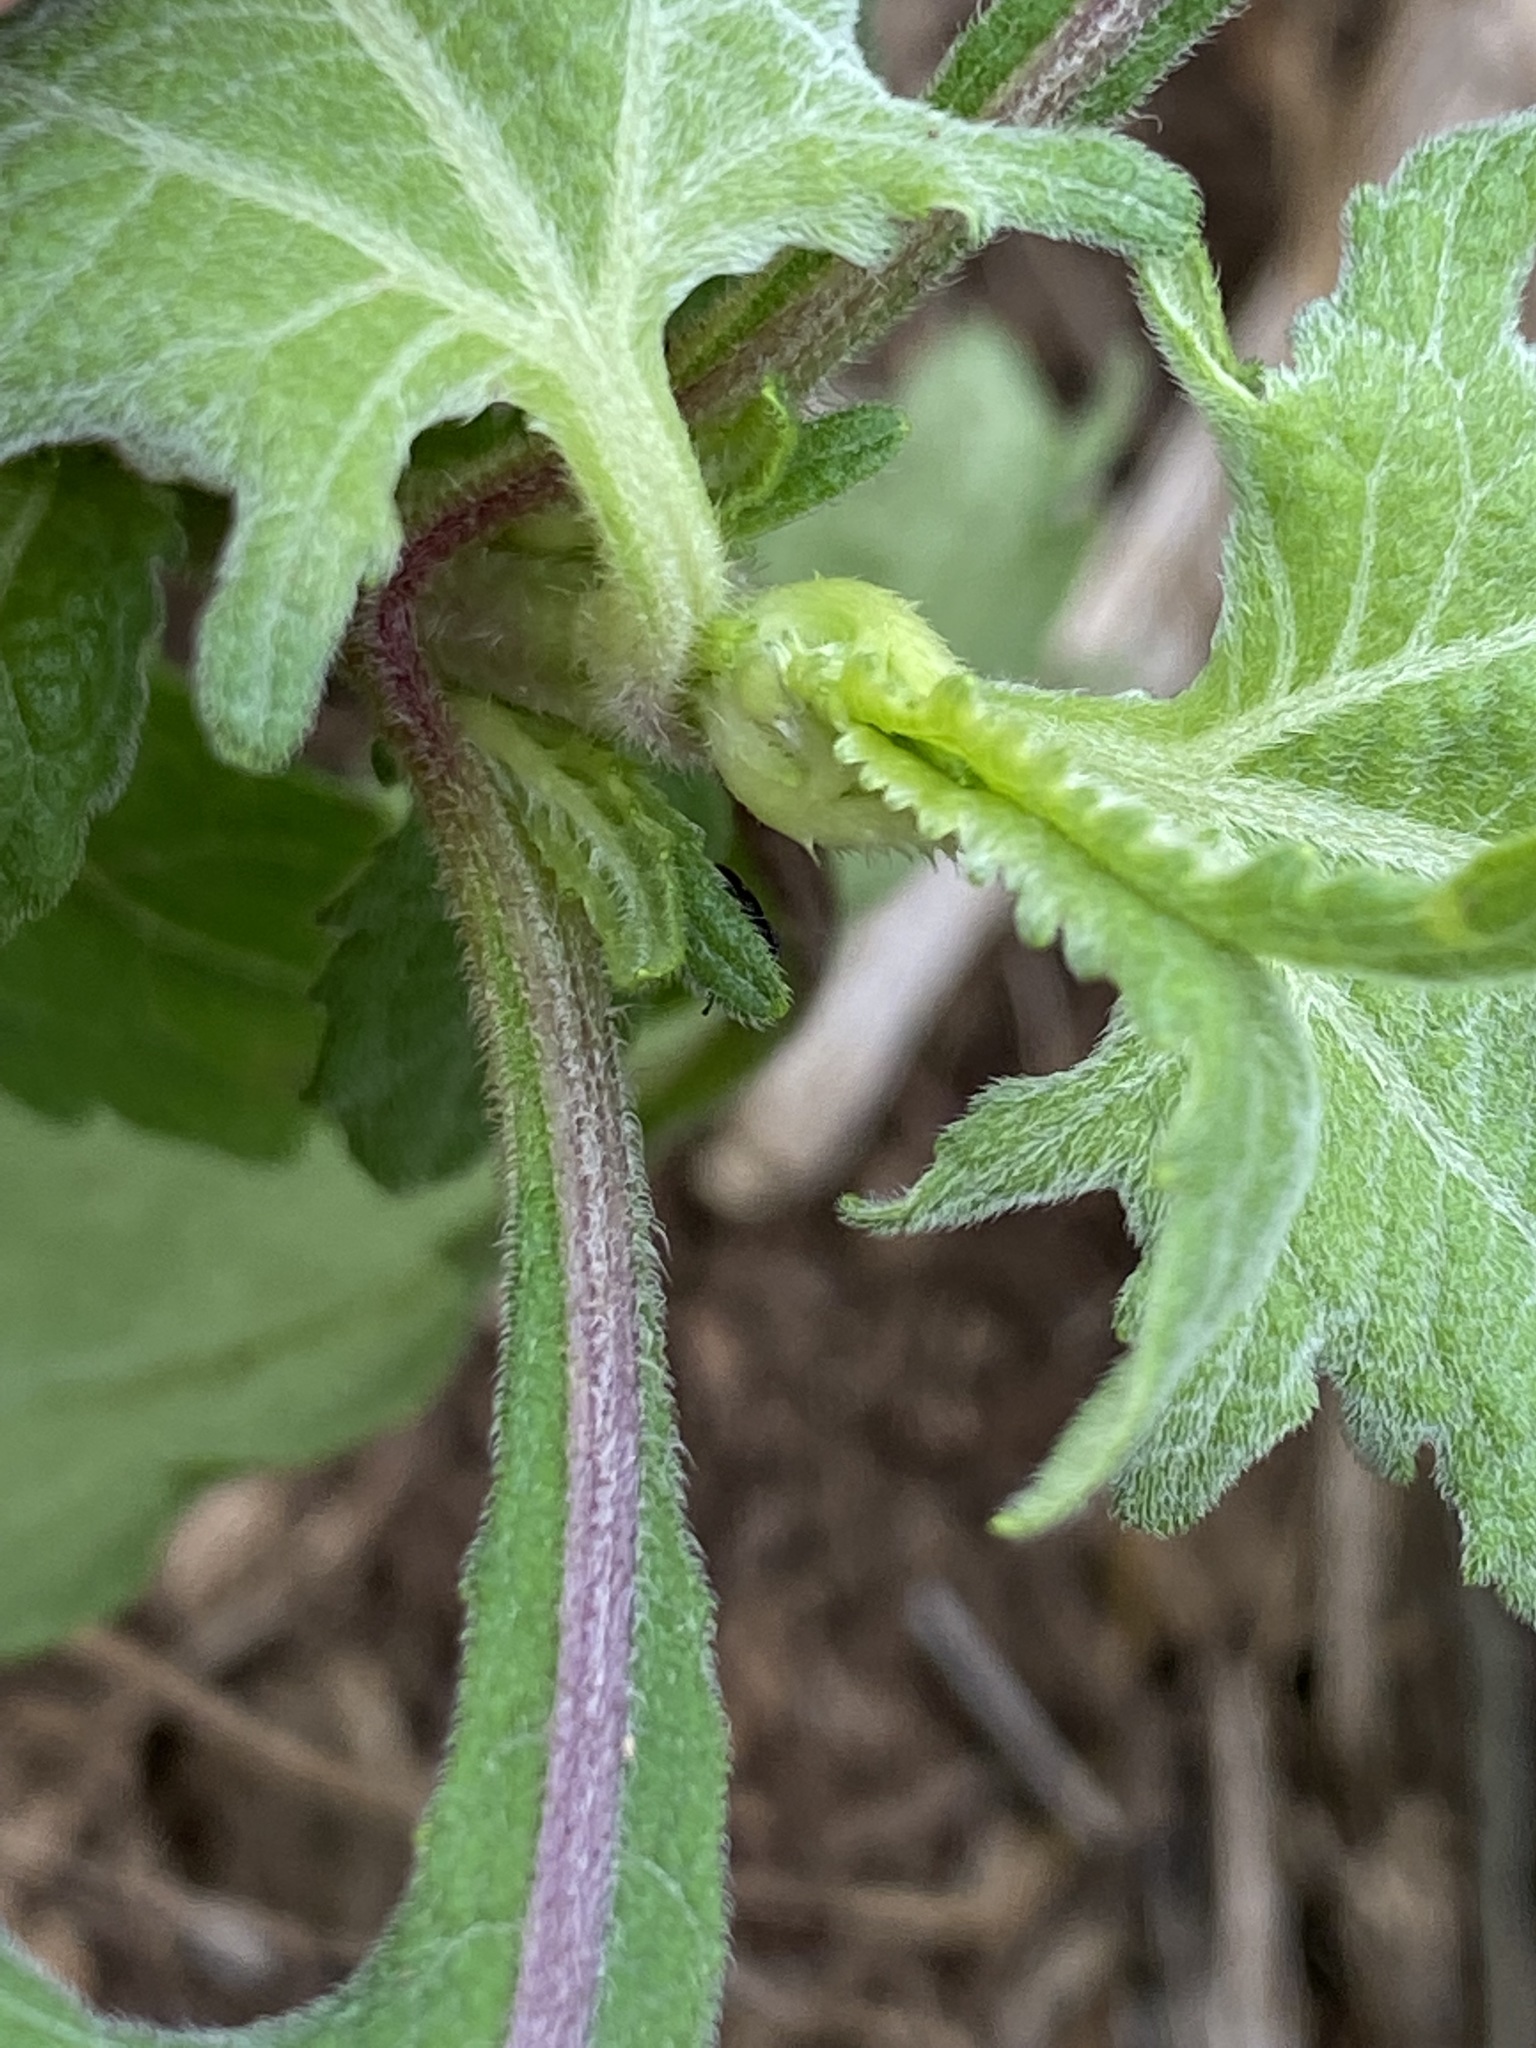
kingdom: Plantae
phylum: Tracheophyta
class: Magnoliopsida
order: Asterales
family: Asteraceae
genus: Sigesbeckia
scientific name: Sigesbeckia orientalis
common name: Eastern st paul's-wort
